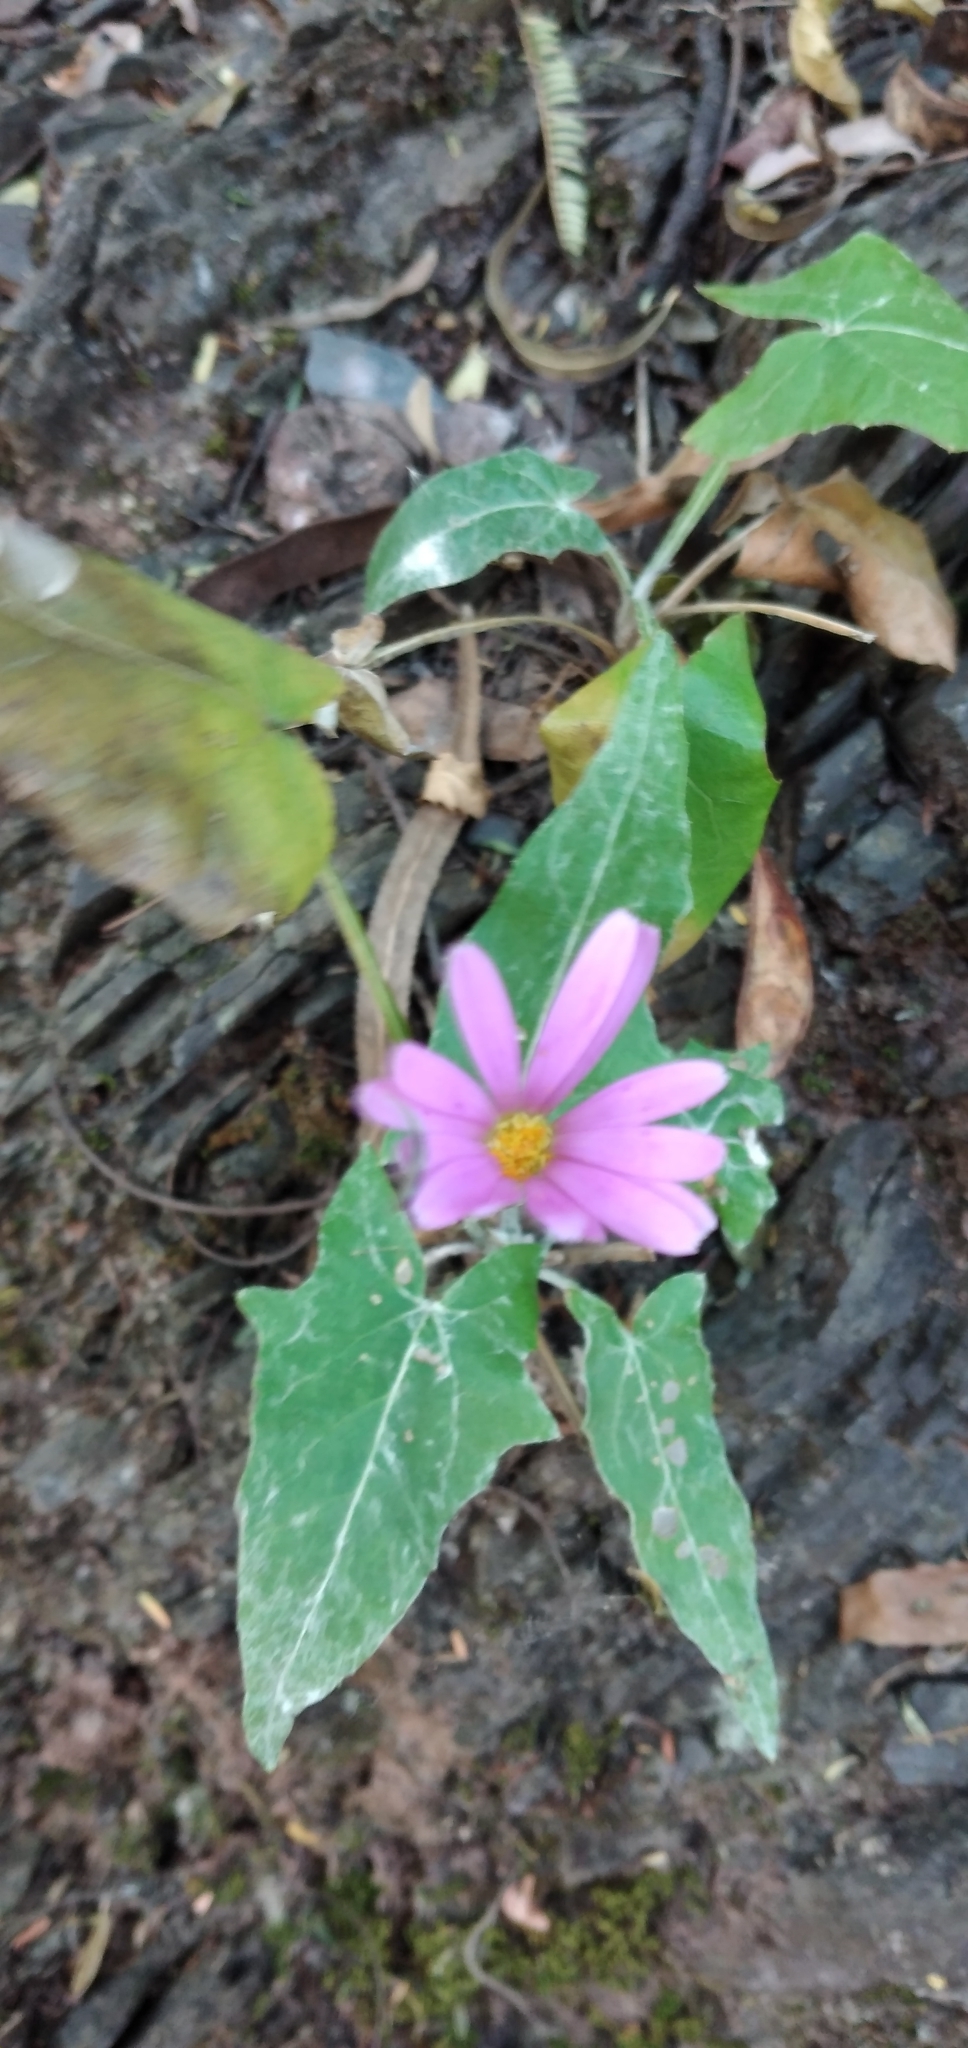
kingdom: Plantae
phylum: Tracheophyta
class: Magnoliopsida
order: Asterales
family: Asteraceae
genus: Onoseris
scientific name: Onoseris alata
